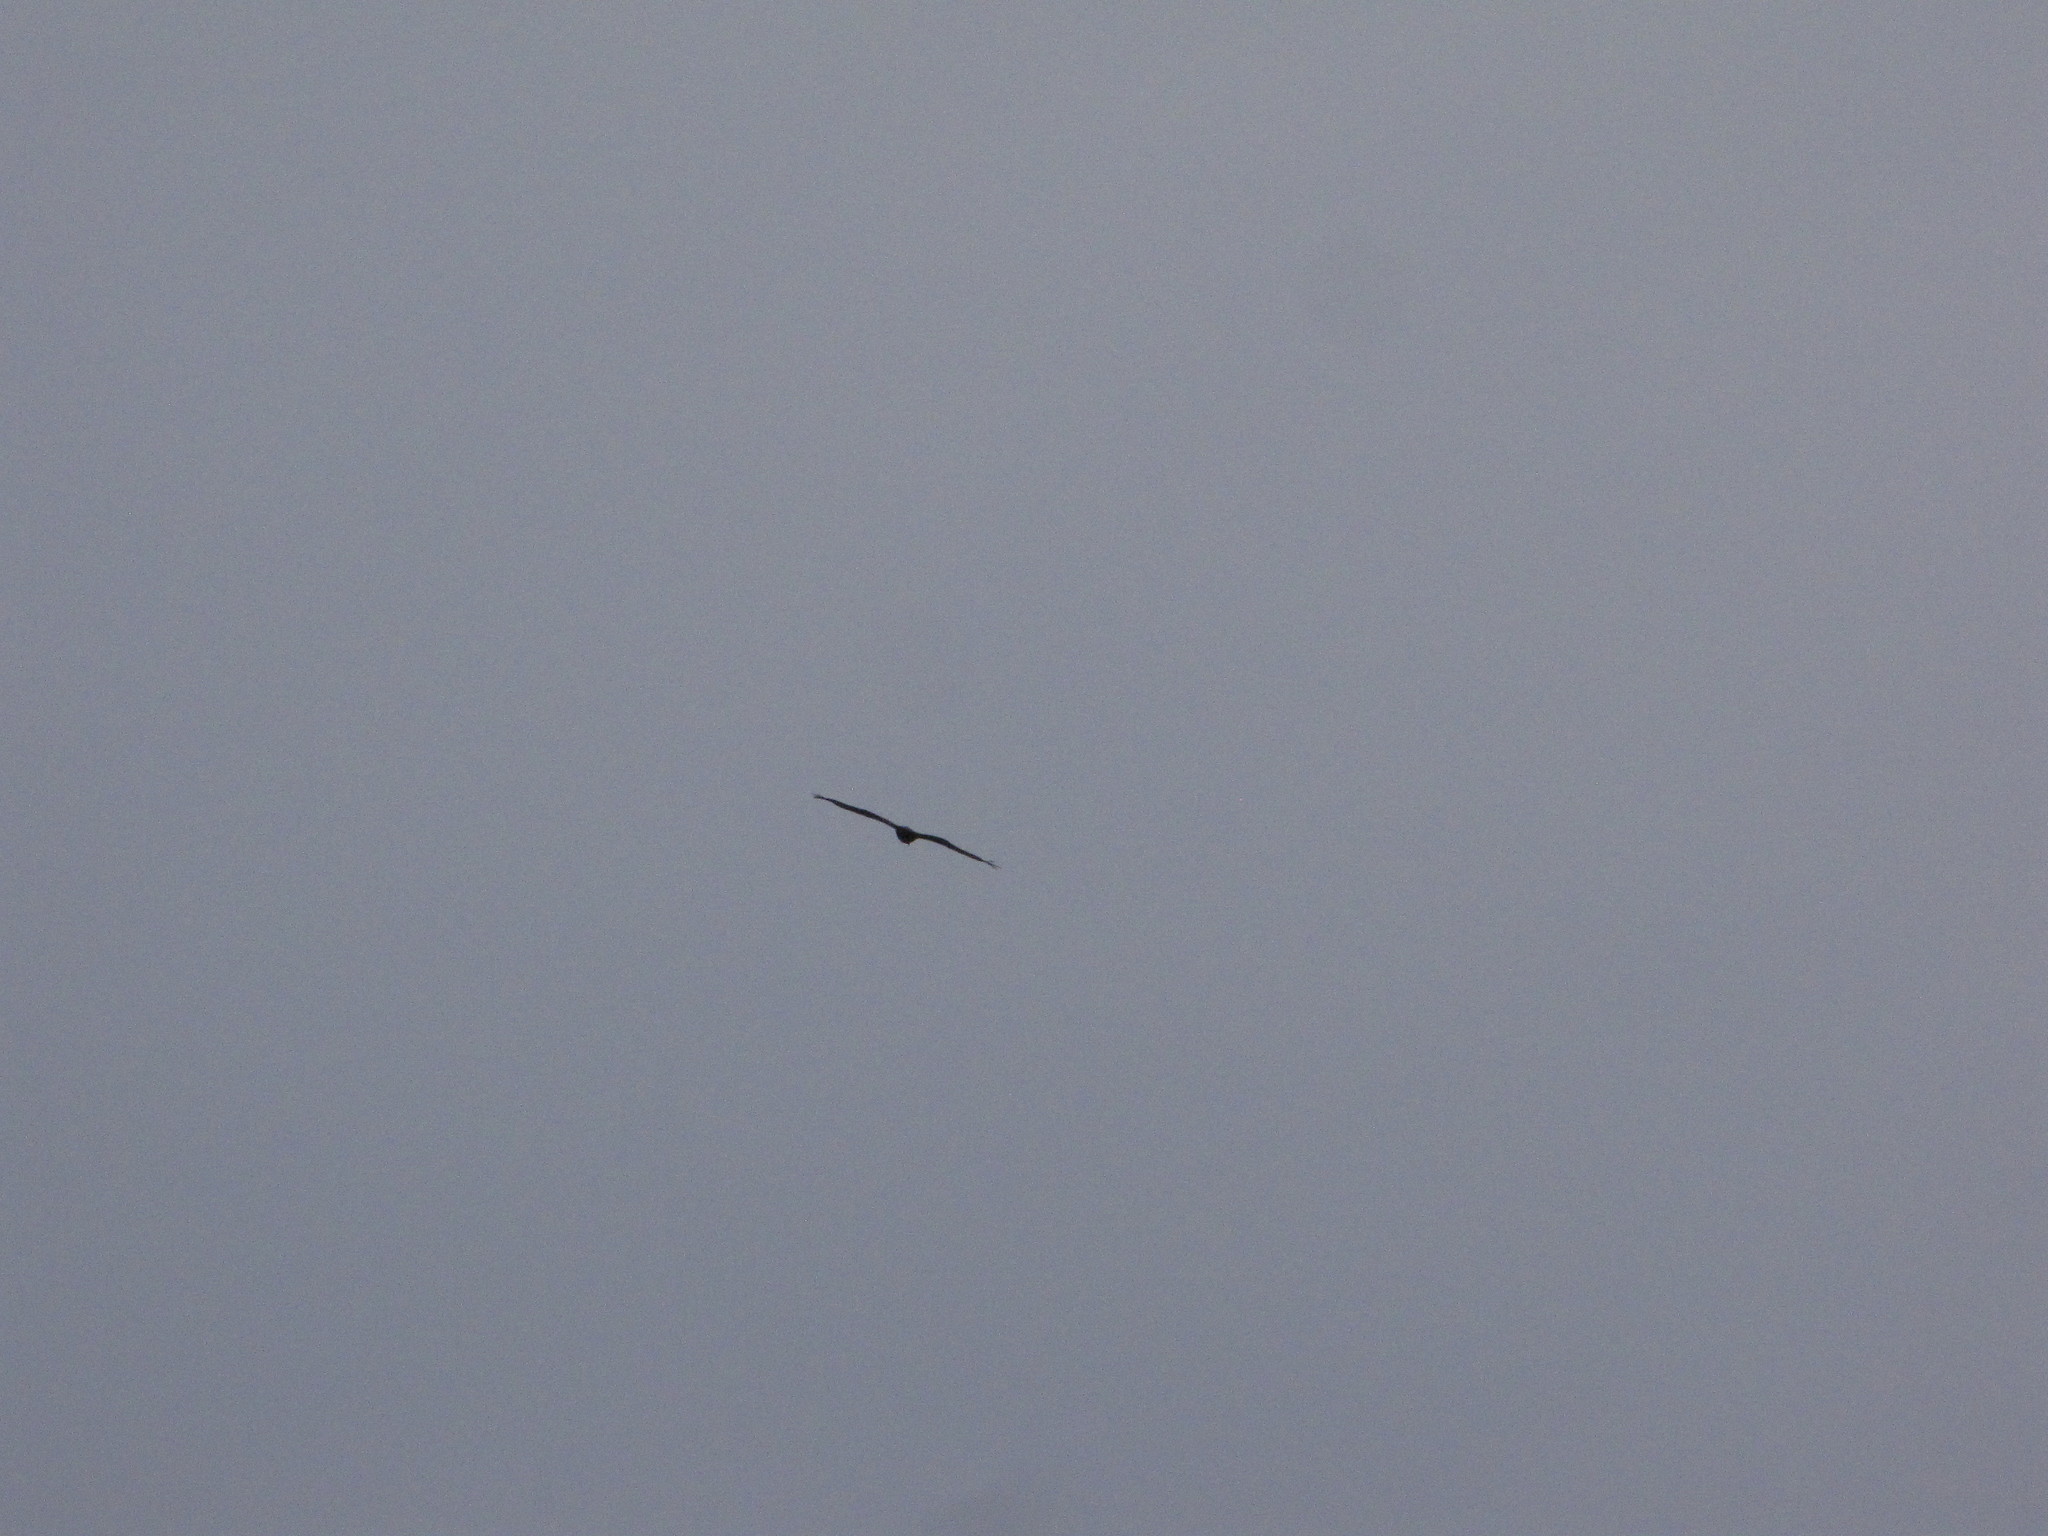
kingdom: Animalia
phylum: Chordata
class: Aves
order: Accipitriformes
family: Accipitridae
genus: Haliaeetus
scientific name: Haliaeetus leucocephalus
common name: Bald eagle
